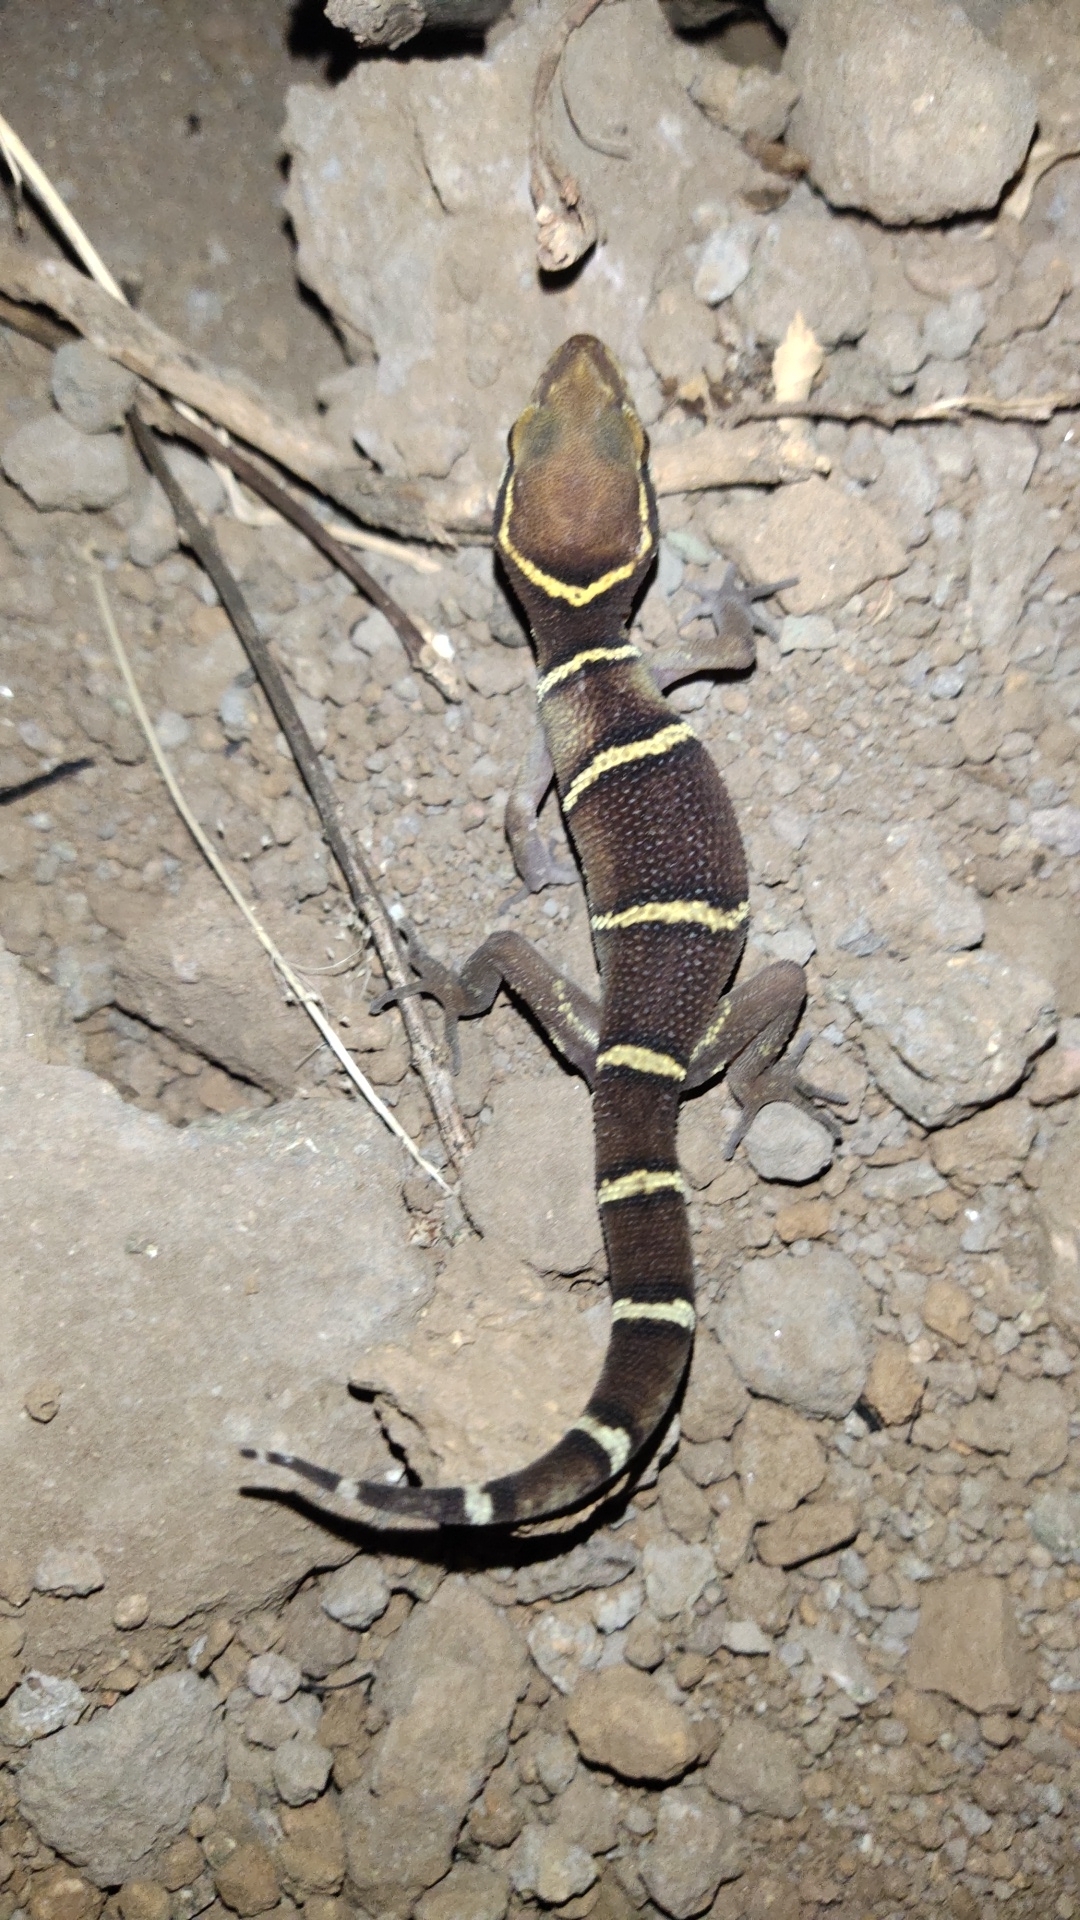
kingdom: Animalia
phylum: Chordata
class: Squamata
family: Gekkonidae
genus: Cyrtodactylus
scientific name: Cyrtodactylus deccanensis
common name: Banded ground gecko
